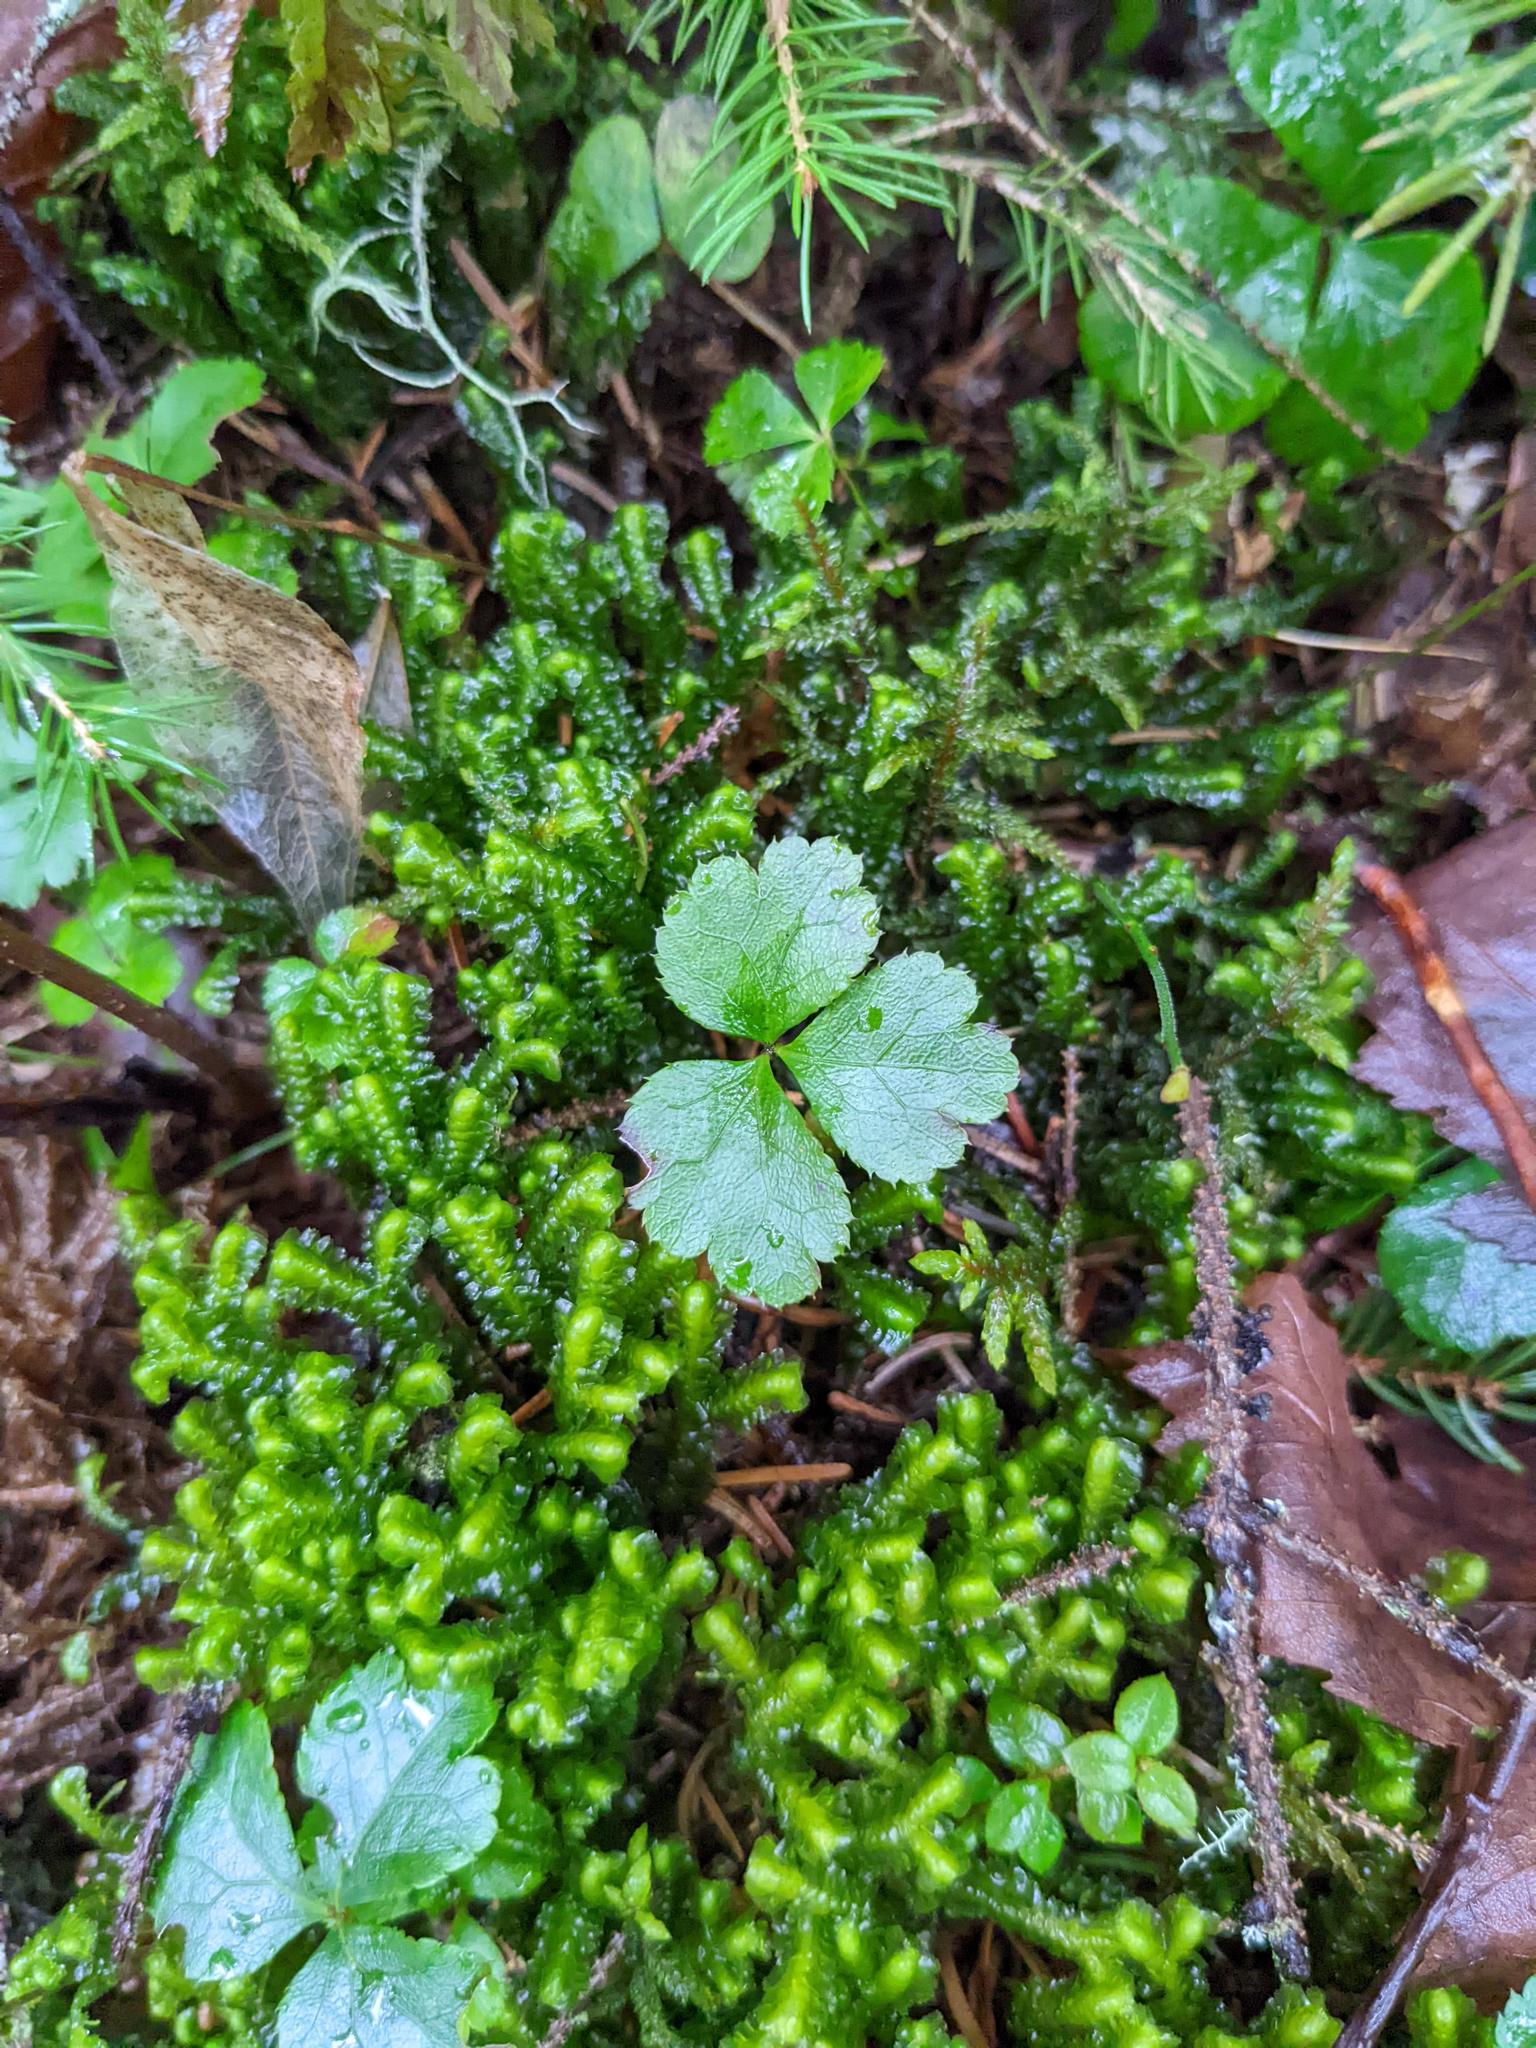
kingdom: Plantae
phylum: Tracheophyta
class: Magnoliopsida
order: Ranunculales
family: Ranunculaceae
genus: Coptis
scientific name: Coptis trifolia
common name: Canker-root
